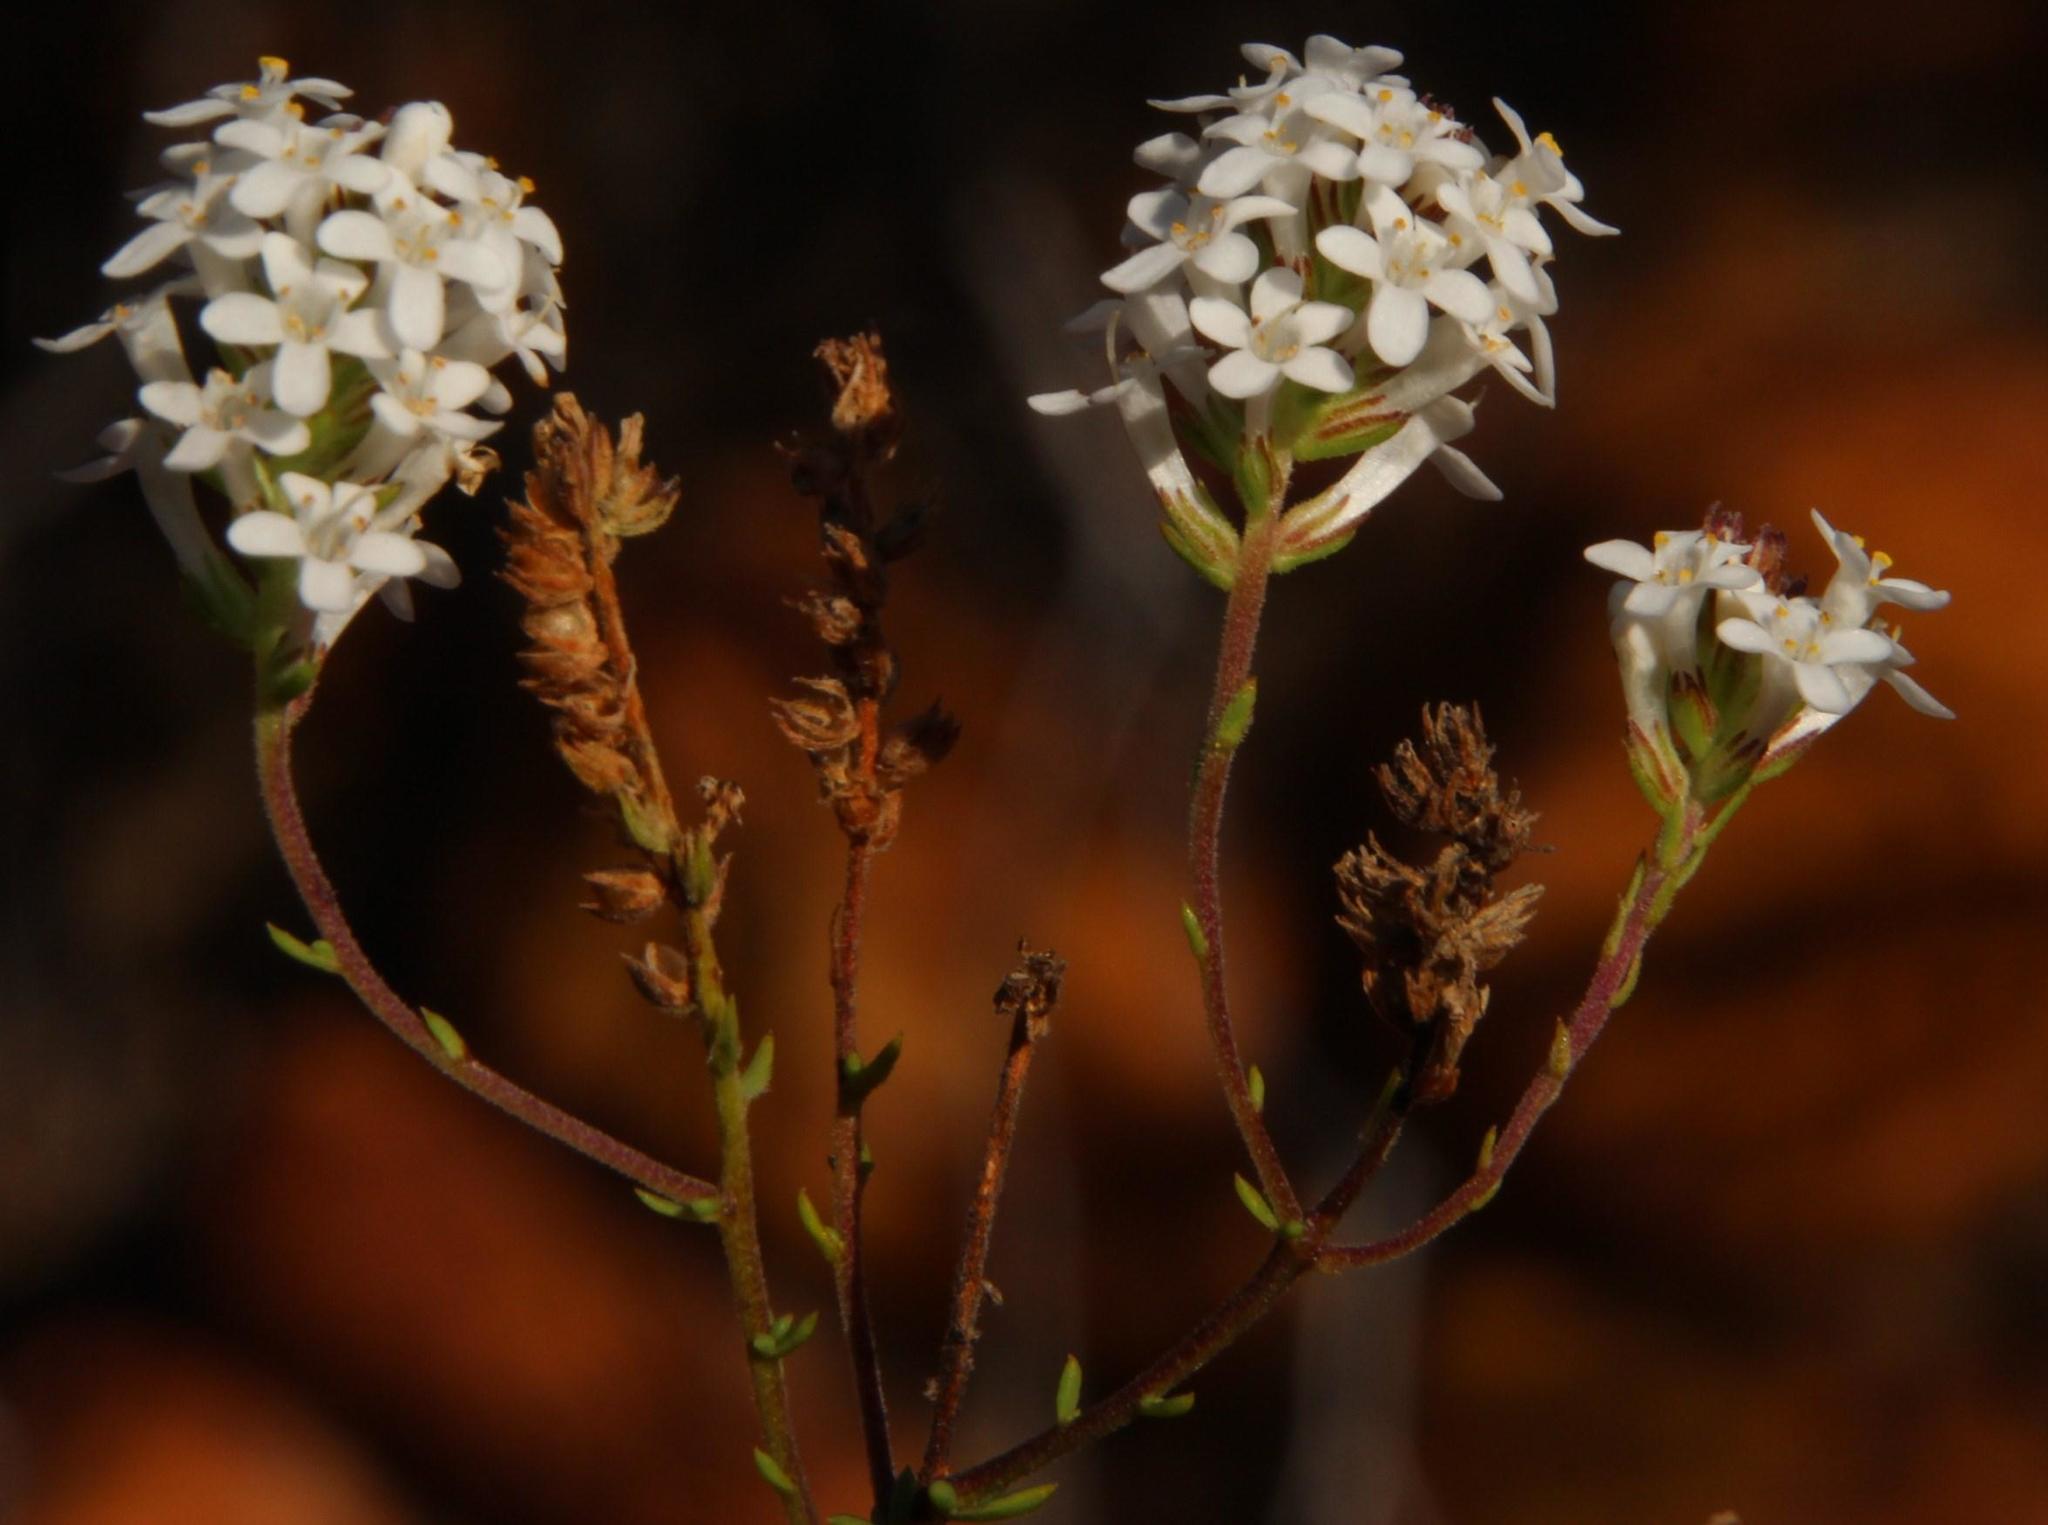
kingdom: Plantae
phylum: Tracheophyta
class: Magnoliopsida
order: Lamiales
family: Scrophulariaceae
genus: Selago
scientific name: Selago brevifolia
